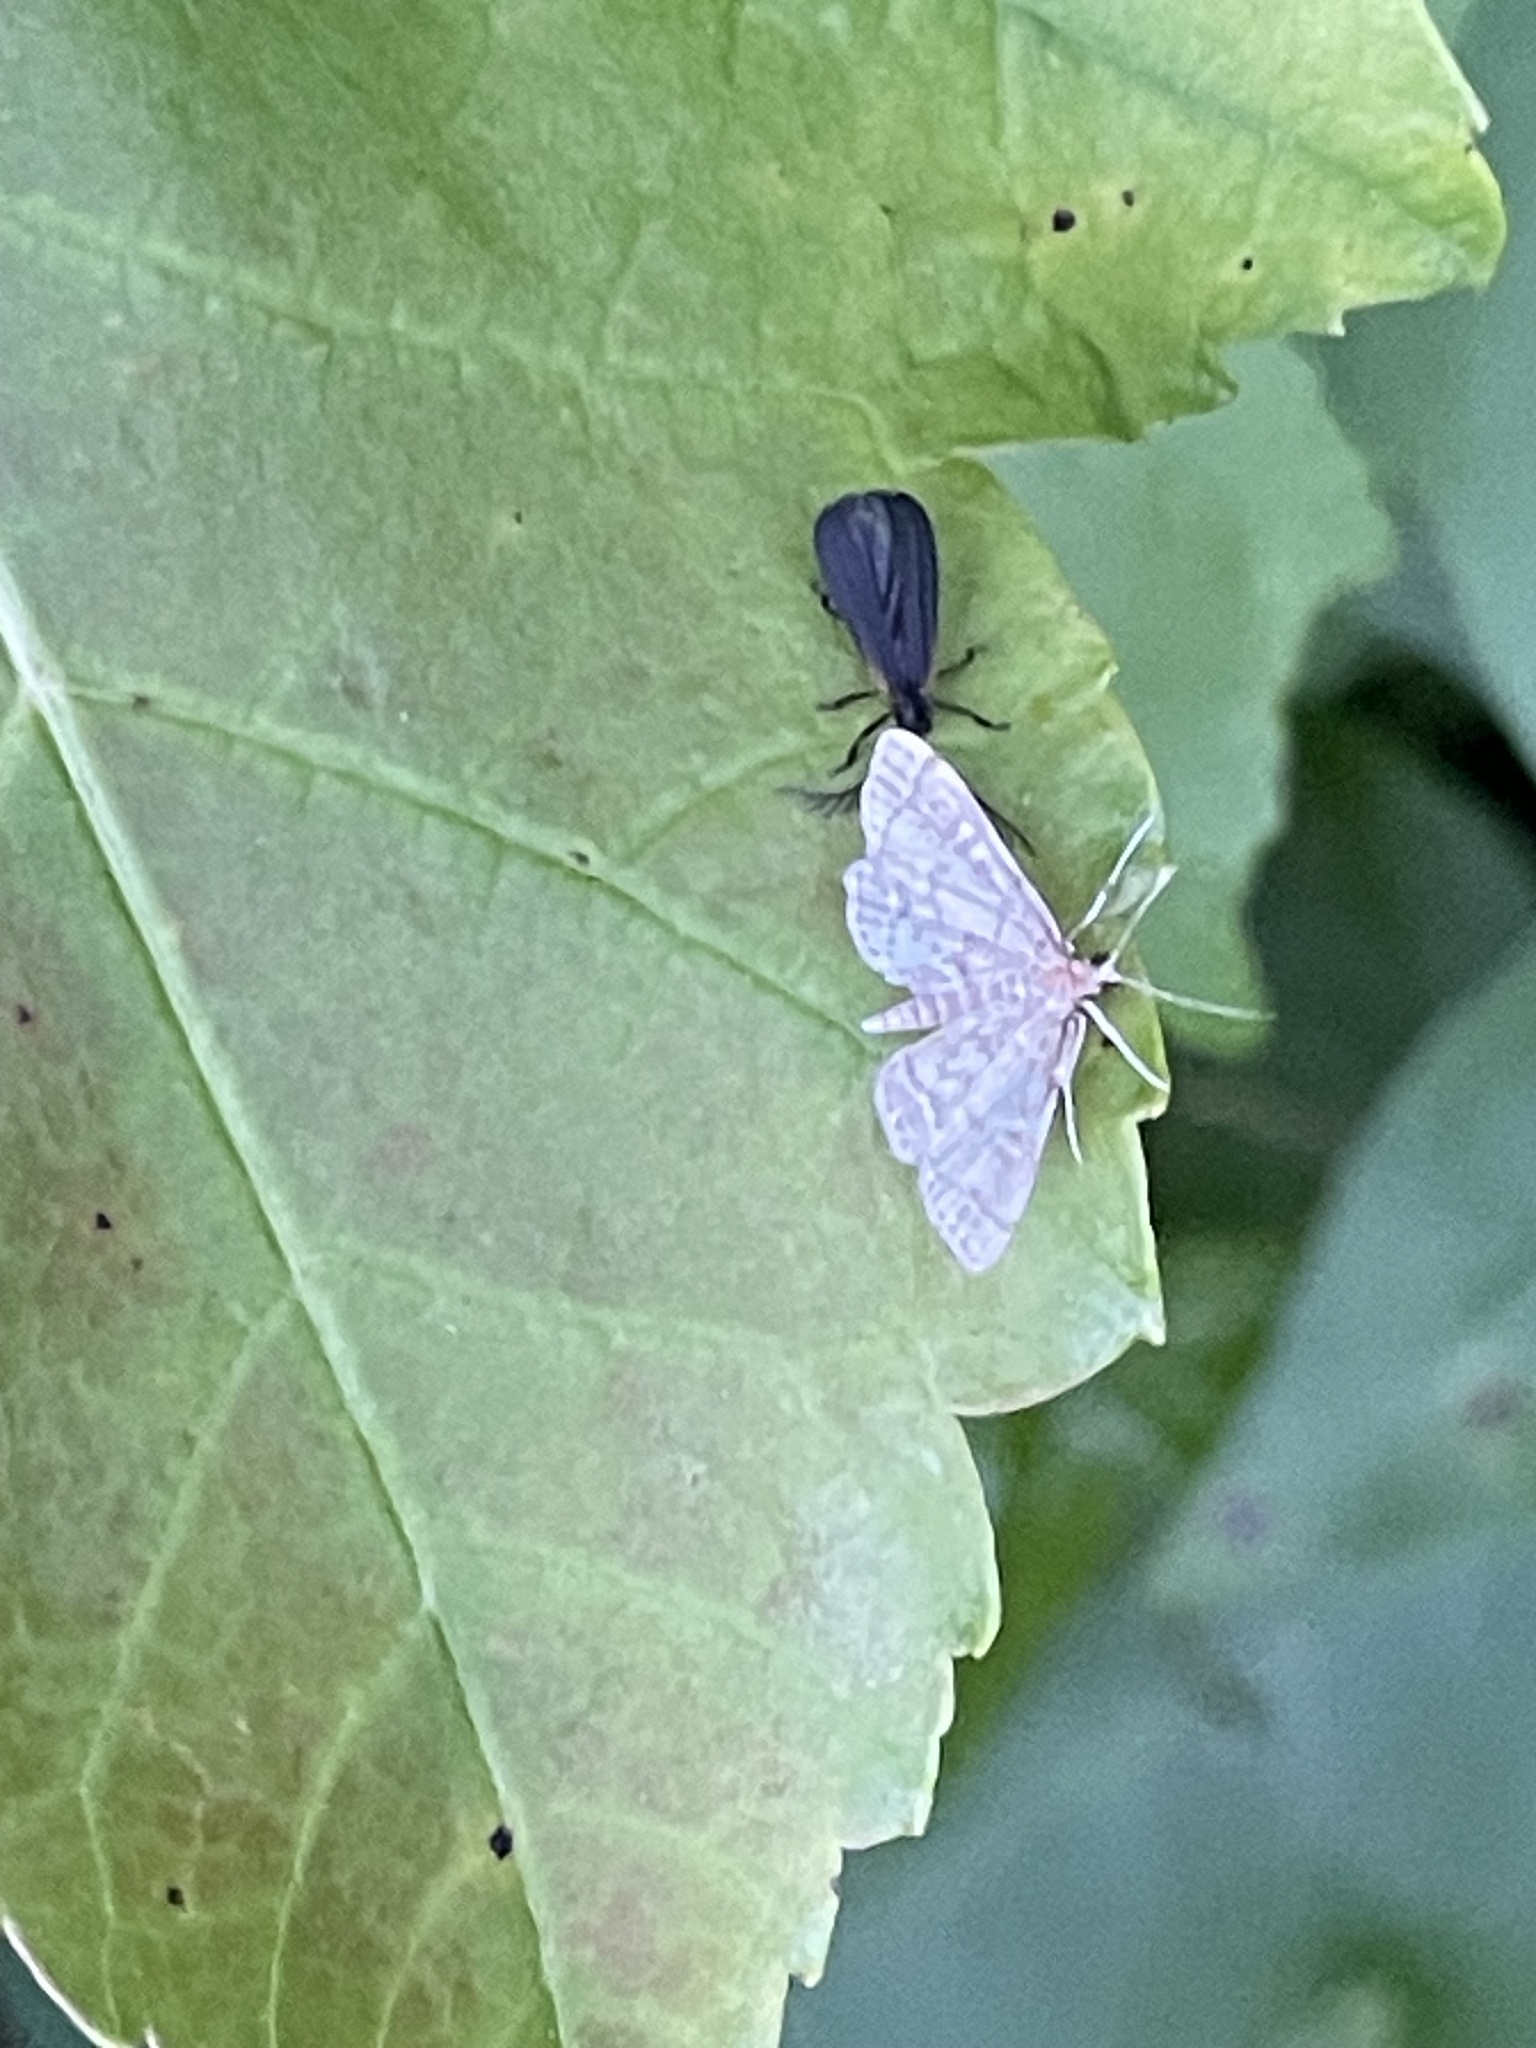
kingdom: Animalia
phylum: Arthropoda
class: Insecta
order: Coleoptera
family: Lycidae
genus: Leptoceletes
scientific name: Leptoceletes basalis
